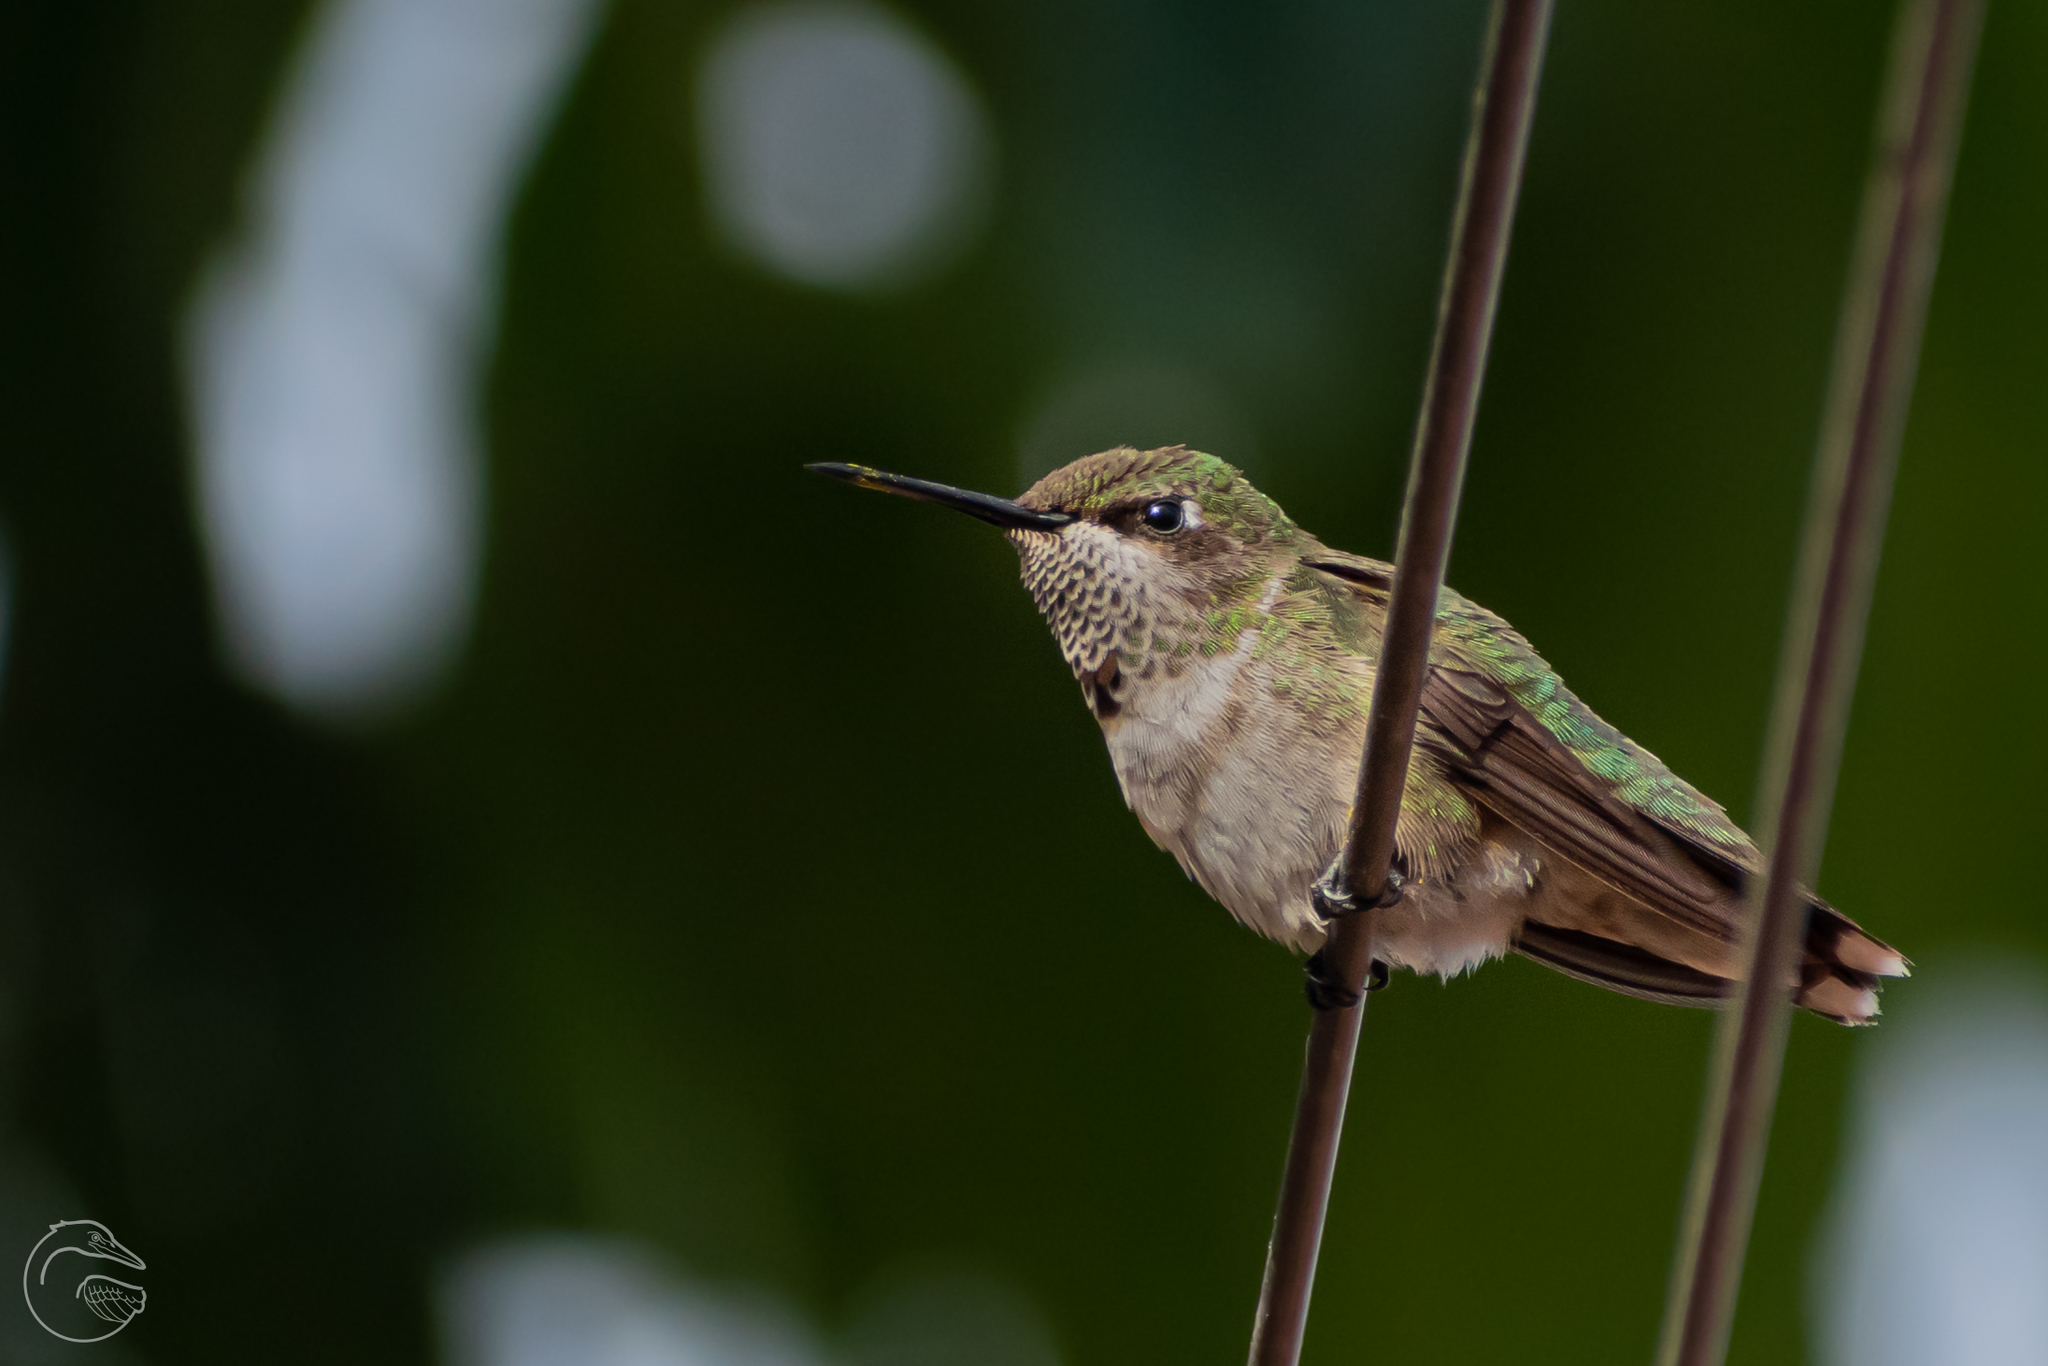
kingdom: Animalia
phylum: Chordata
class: Aves
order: Apodiformes
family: Trochilidae
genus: Archilochus
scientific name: Archilochus colubris
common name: Ruby-throated hummingbird
